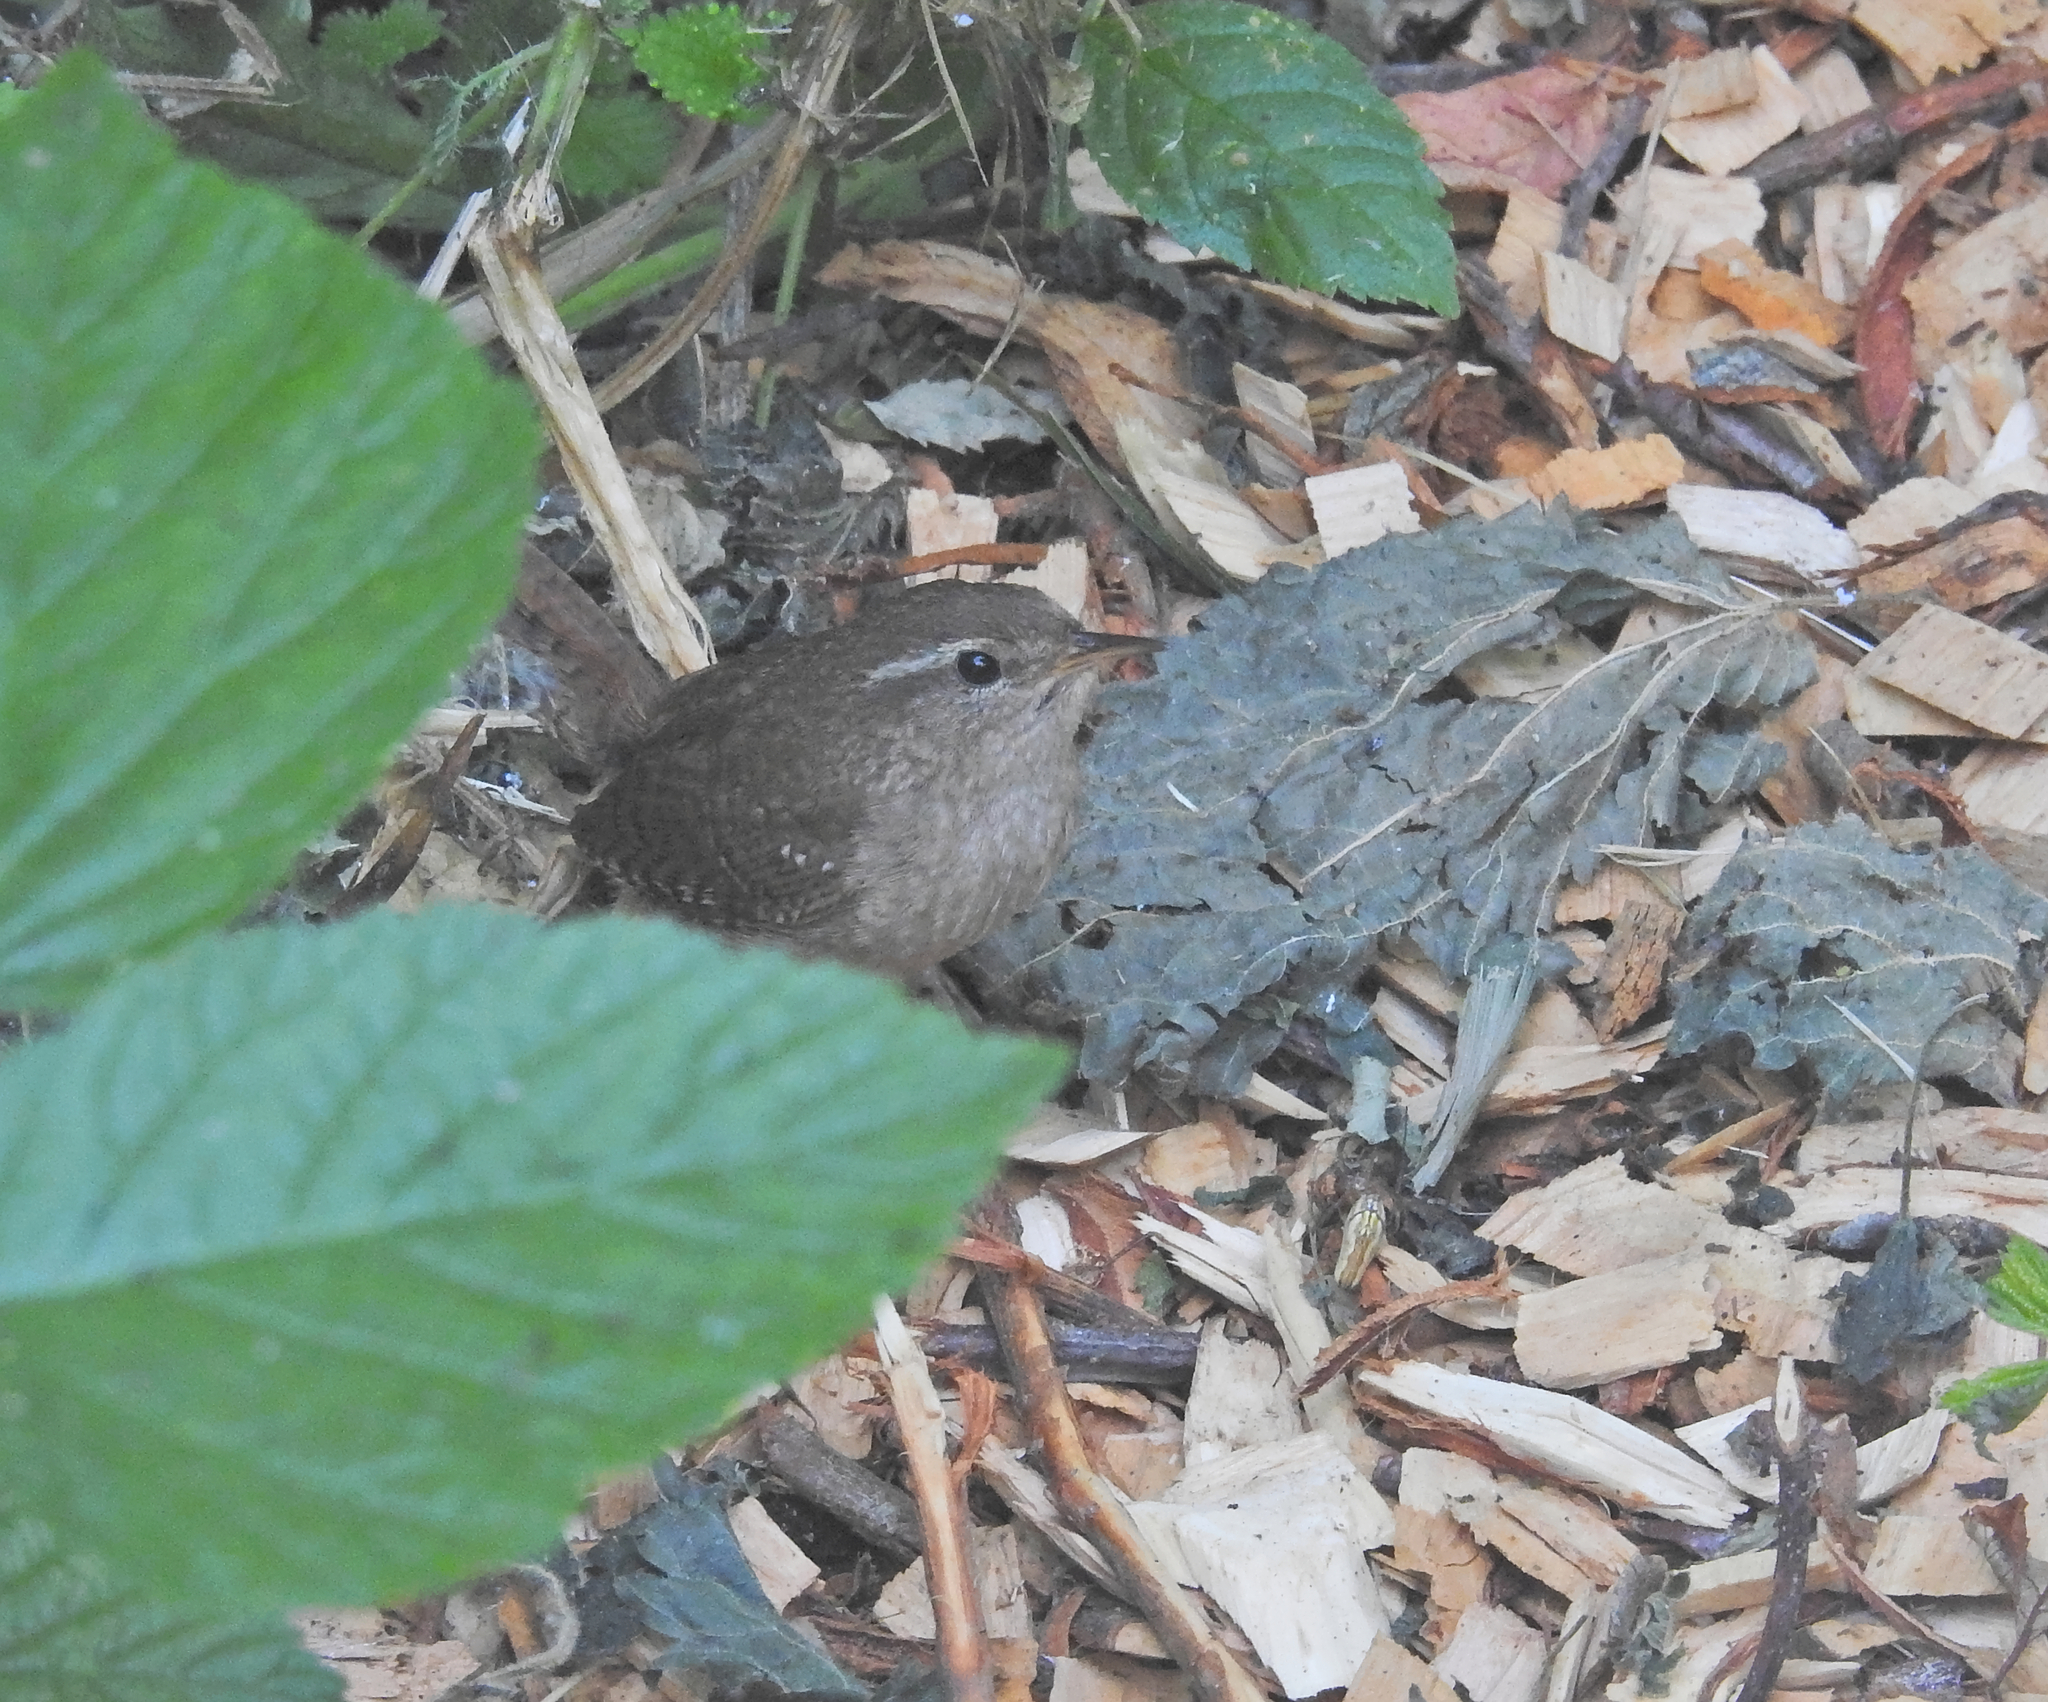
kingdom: Animalia
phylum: Chordata
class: Aves
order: Passeriformes
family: Troglodytidae
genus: Troglodytes
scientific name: Troglodytes troglodytes
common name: Eurasian wren
